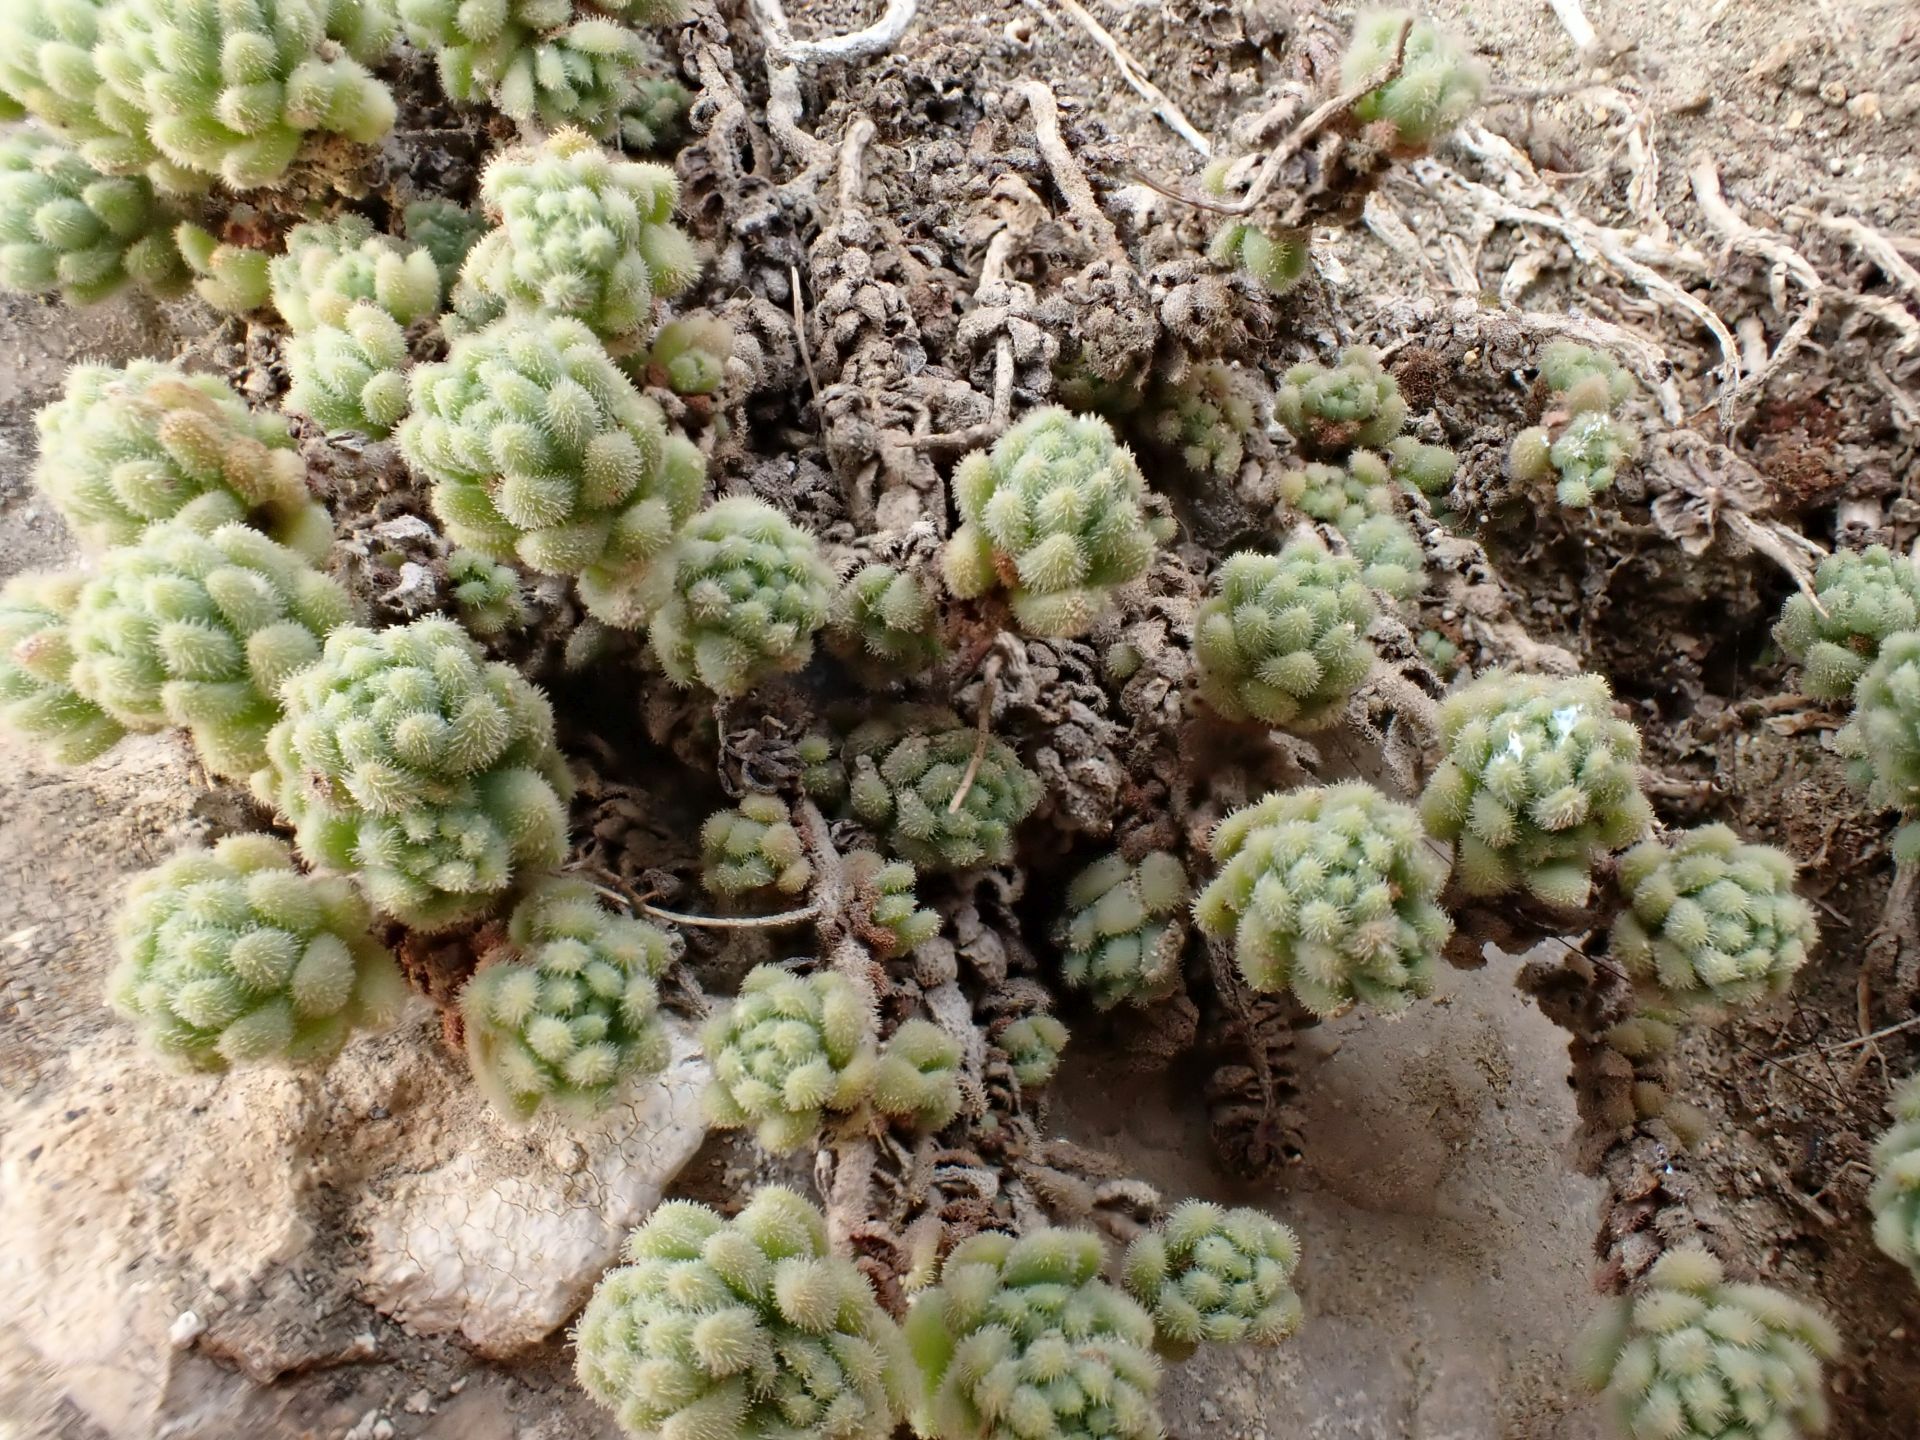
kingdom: Plantae
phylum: Tracheophyta
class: Magnoliopsida
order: Saxifragales
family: Crassulaceae
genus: Sedum
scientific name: Sedum dasyphyllum
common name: Thick-leaf stonecrop
